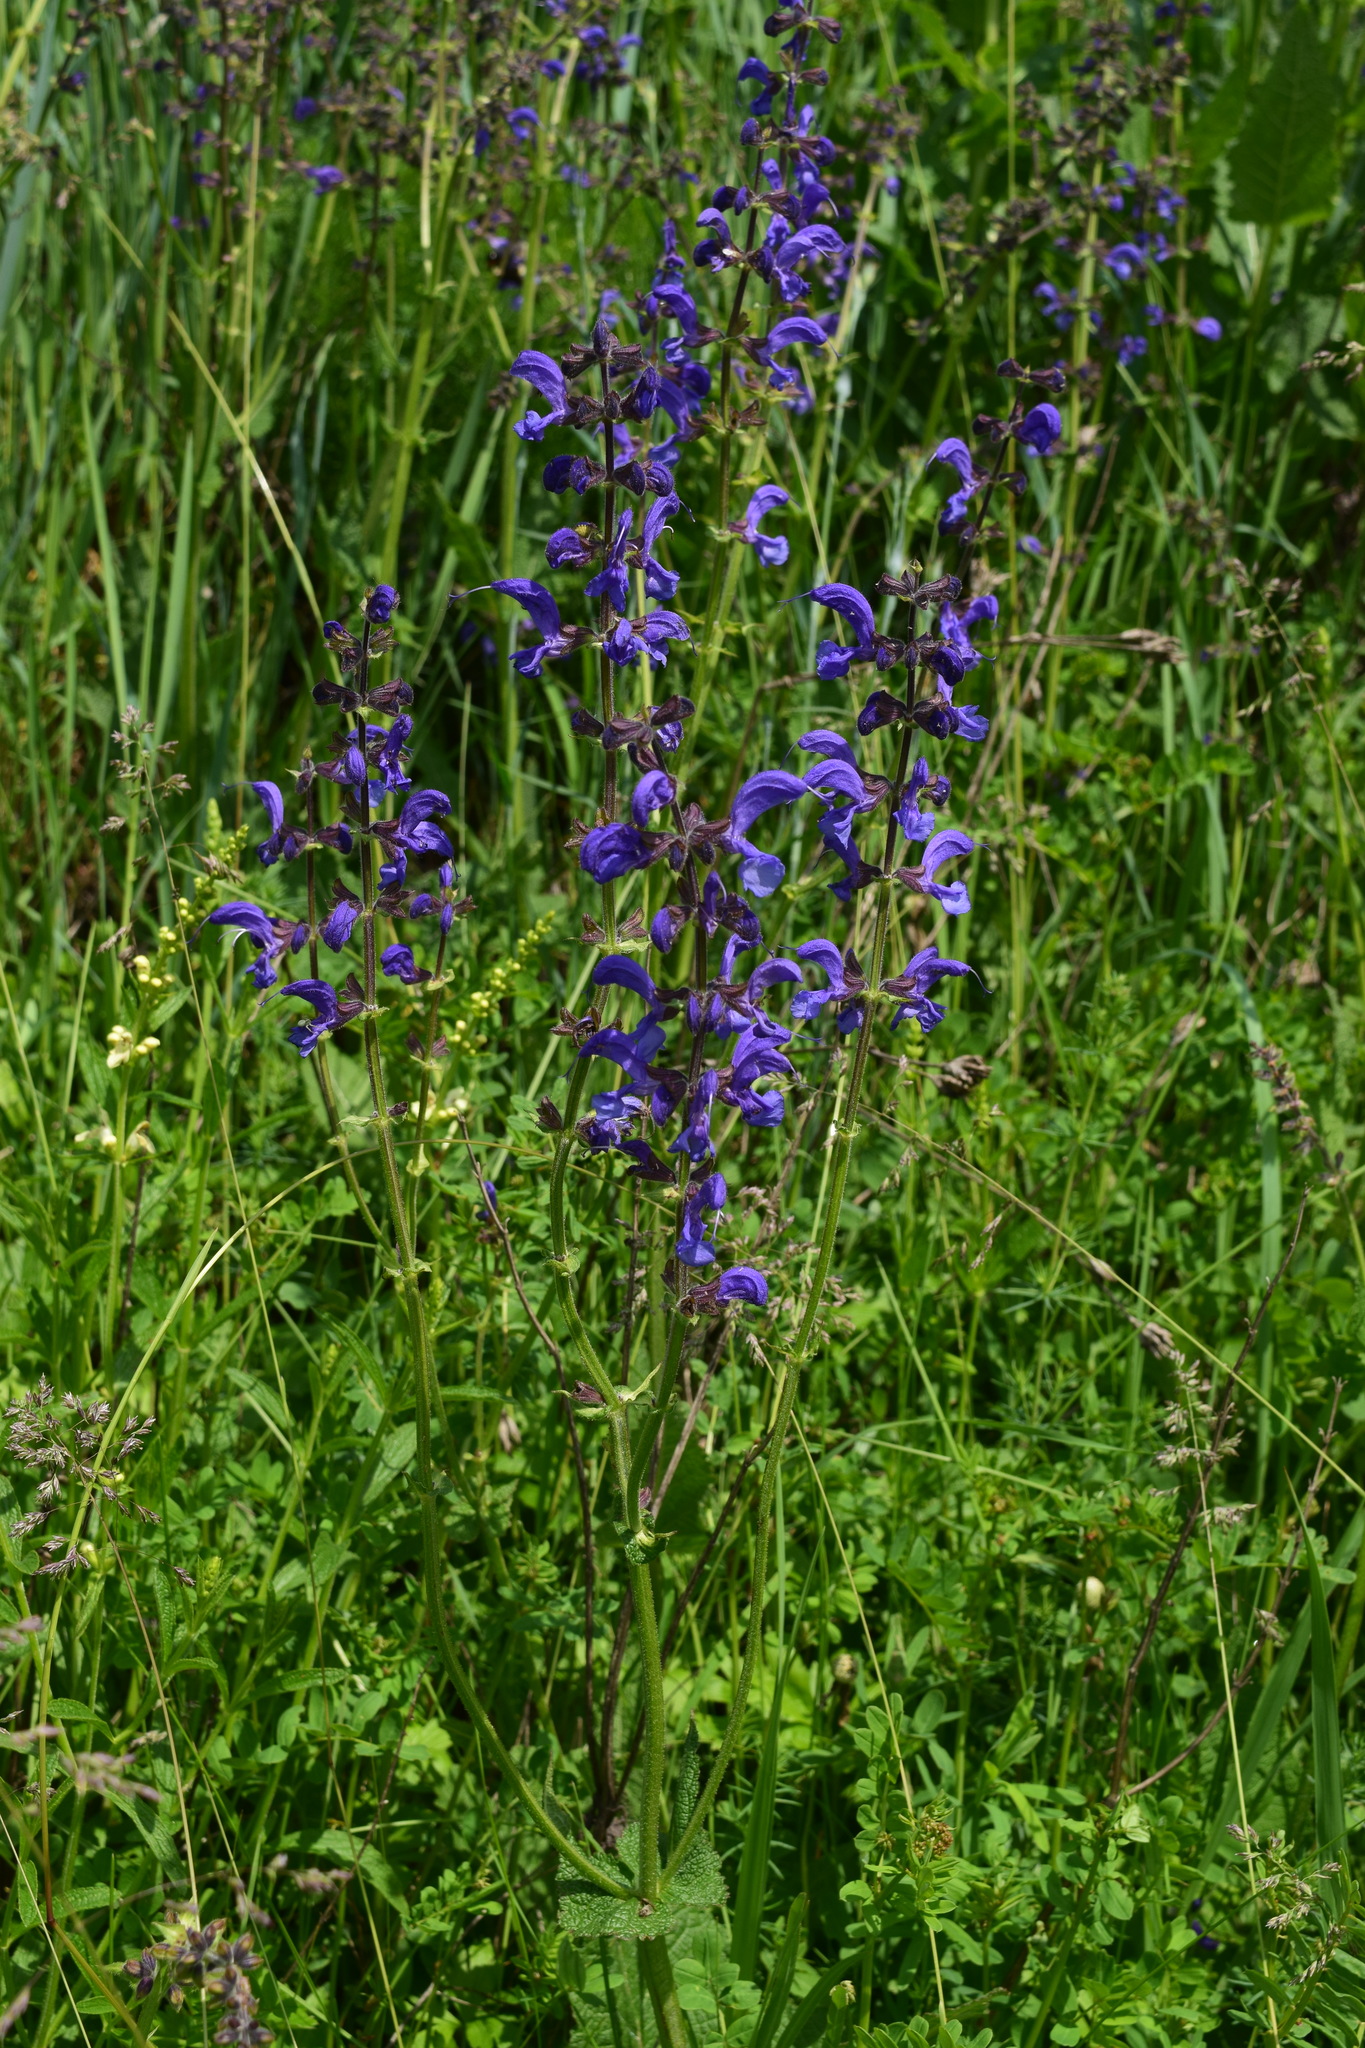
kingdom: Plantae
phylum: Tracheophyta
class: Magnoliopsida
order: Lamiales
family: Lamiaceae
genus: Salvia
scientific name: Salvia pratensis
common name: Meadow sage
